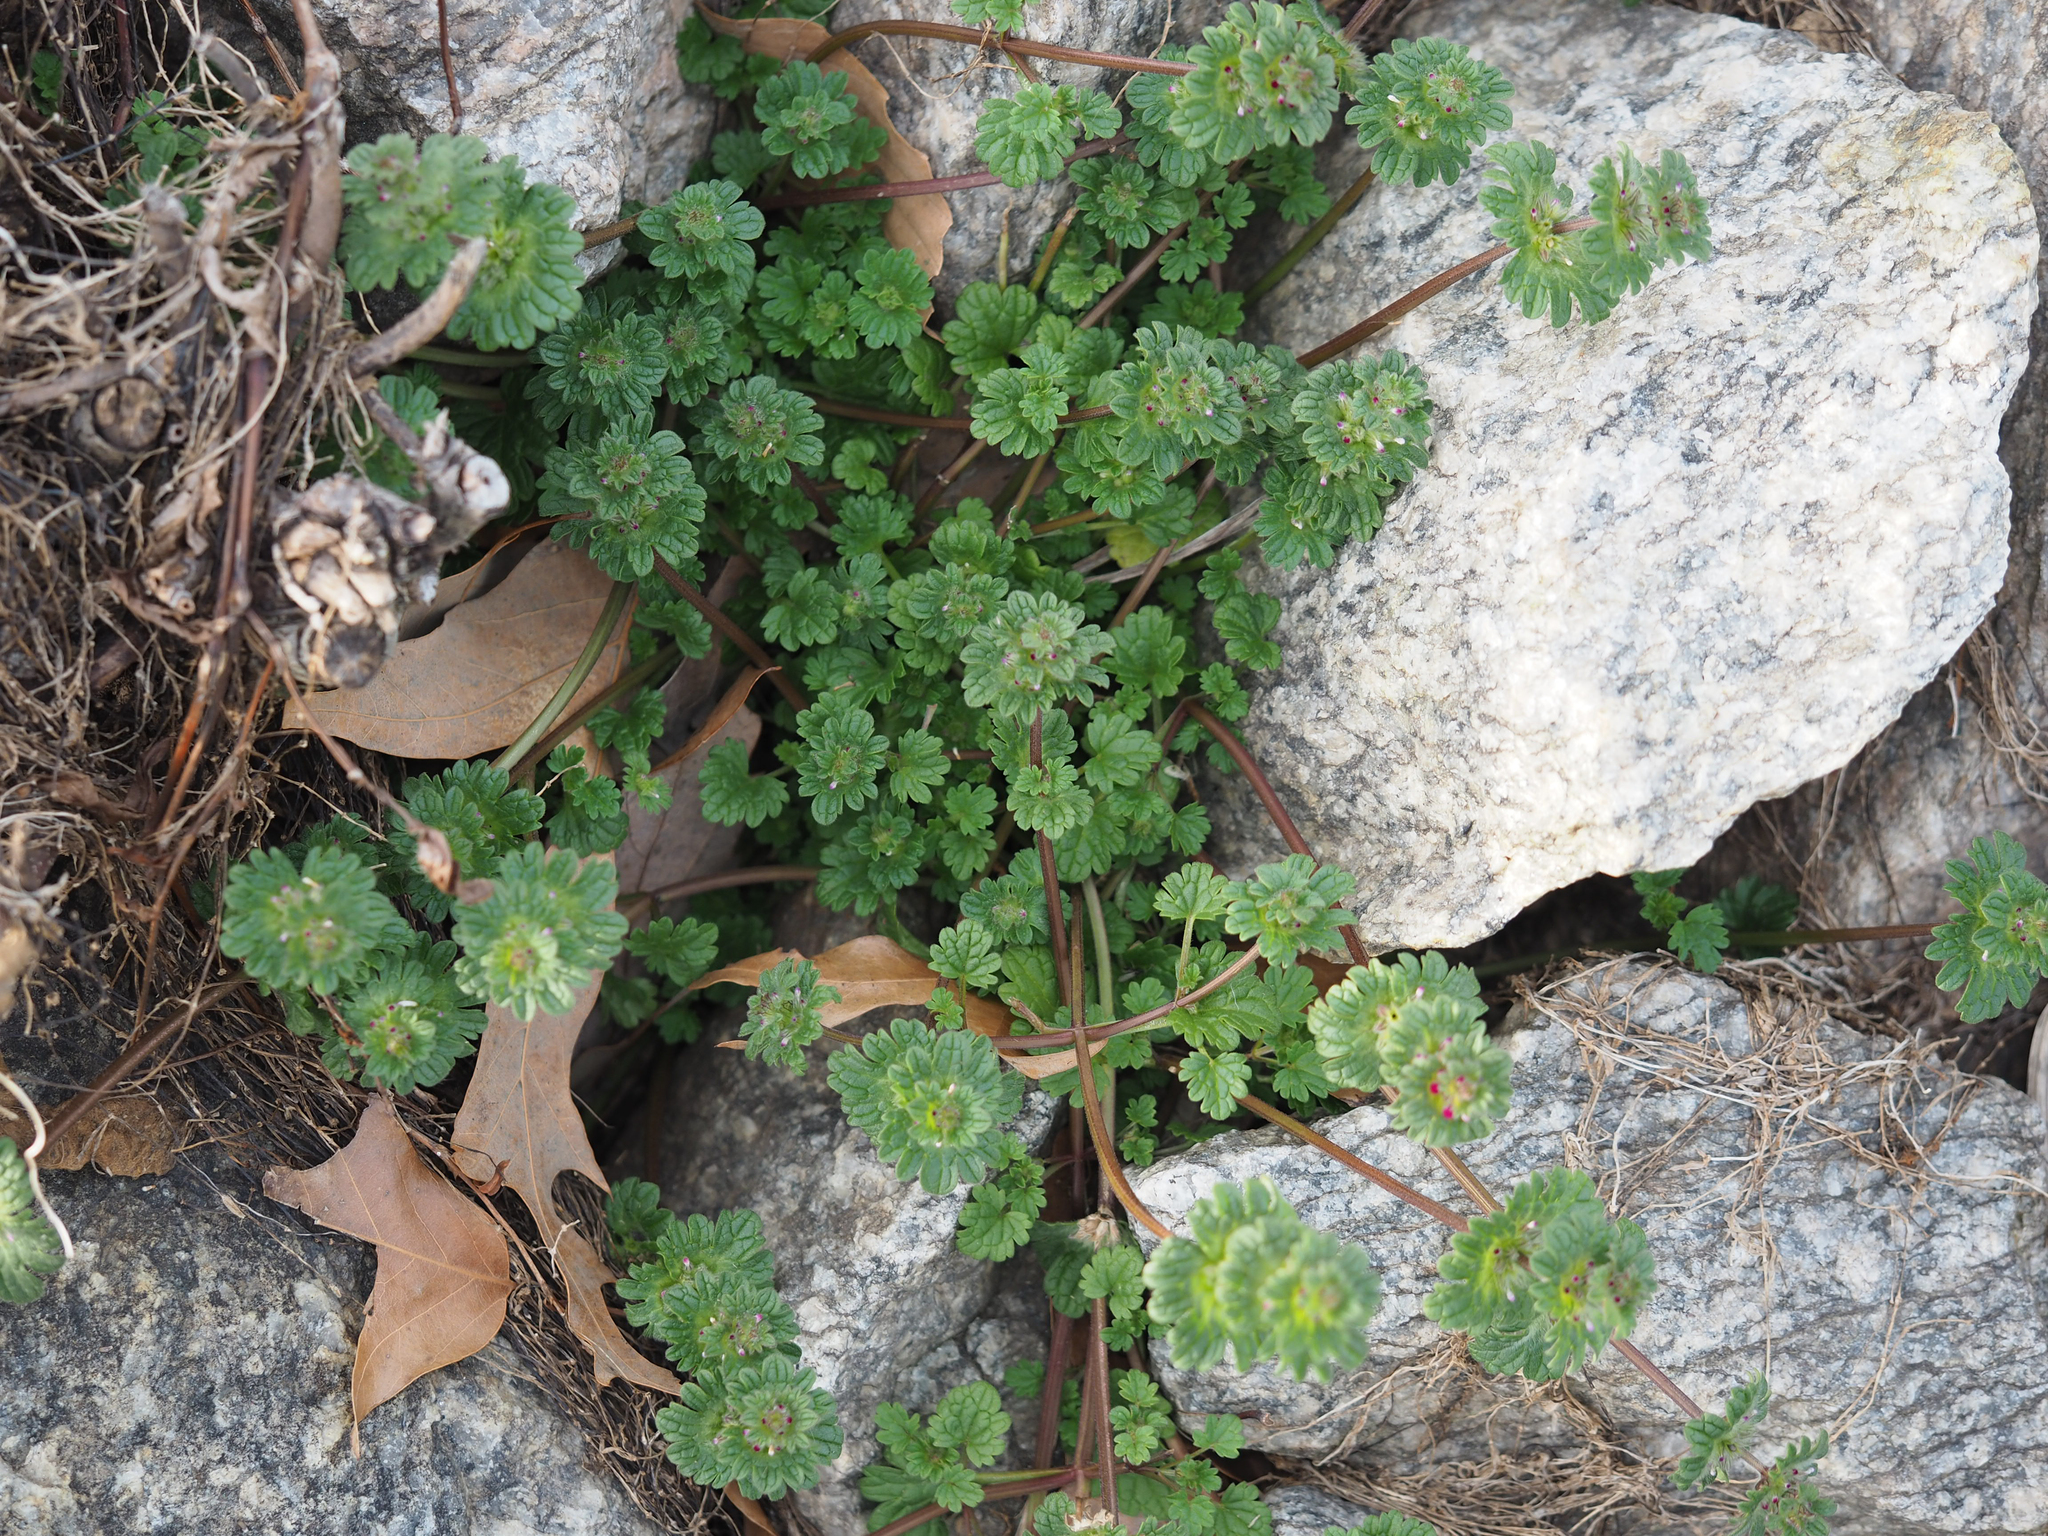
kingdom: Plantae
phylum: Tracheophyta
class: Magnoliopsida
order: Lamiales
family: Lamiaceae
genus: Lamium
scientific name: Lamium amplexicaule
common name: Henbit dead-nettle
